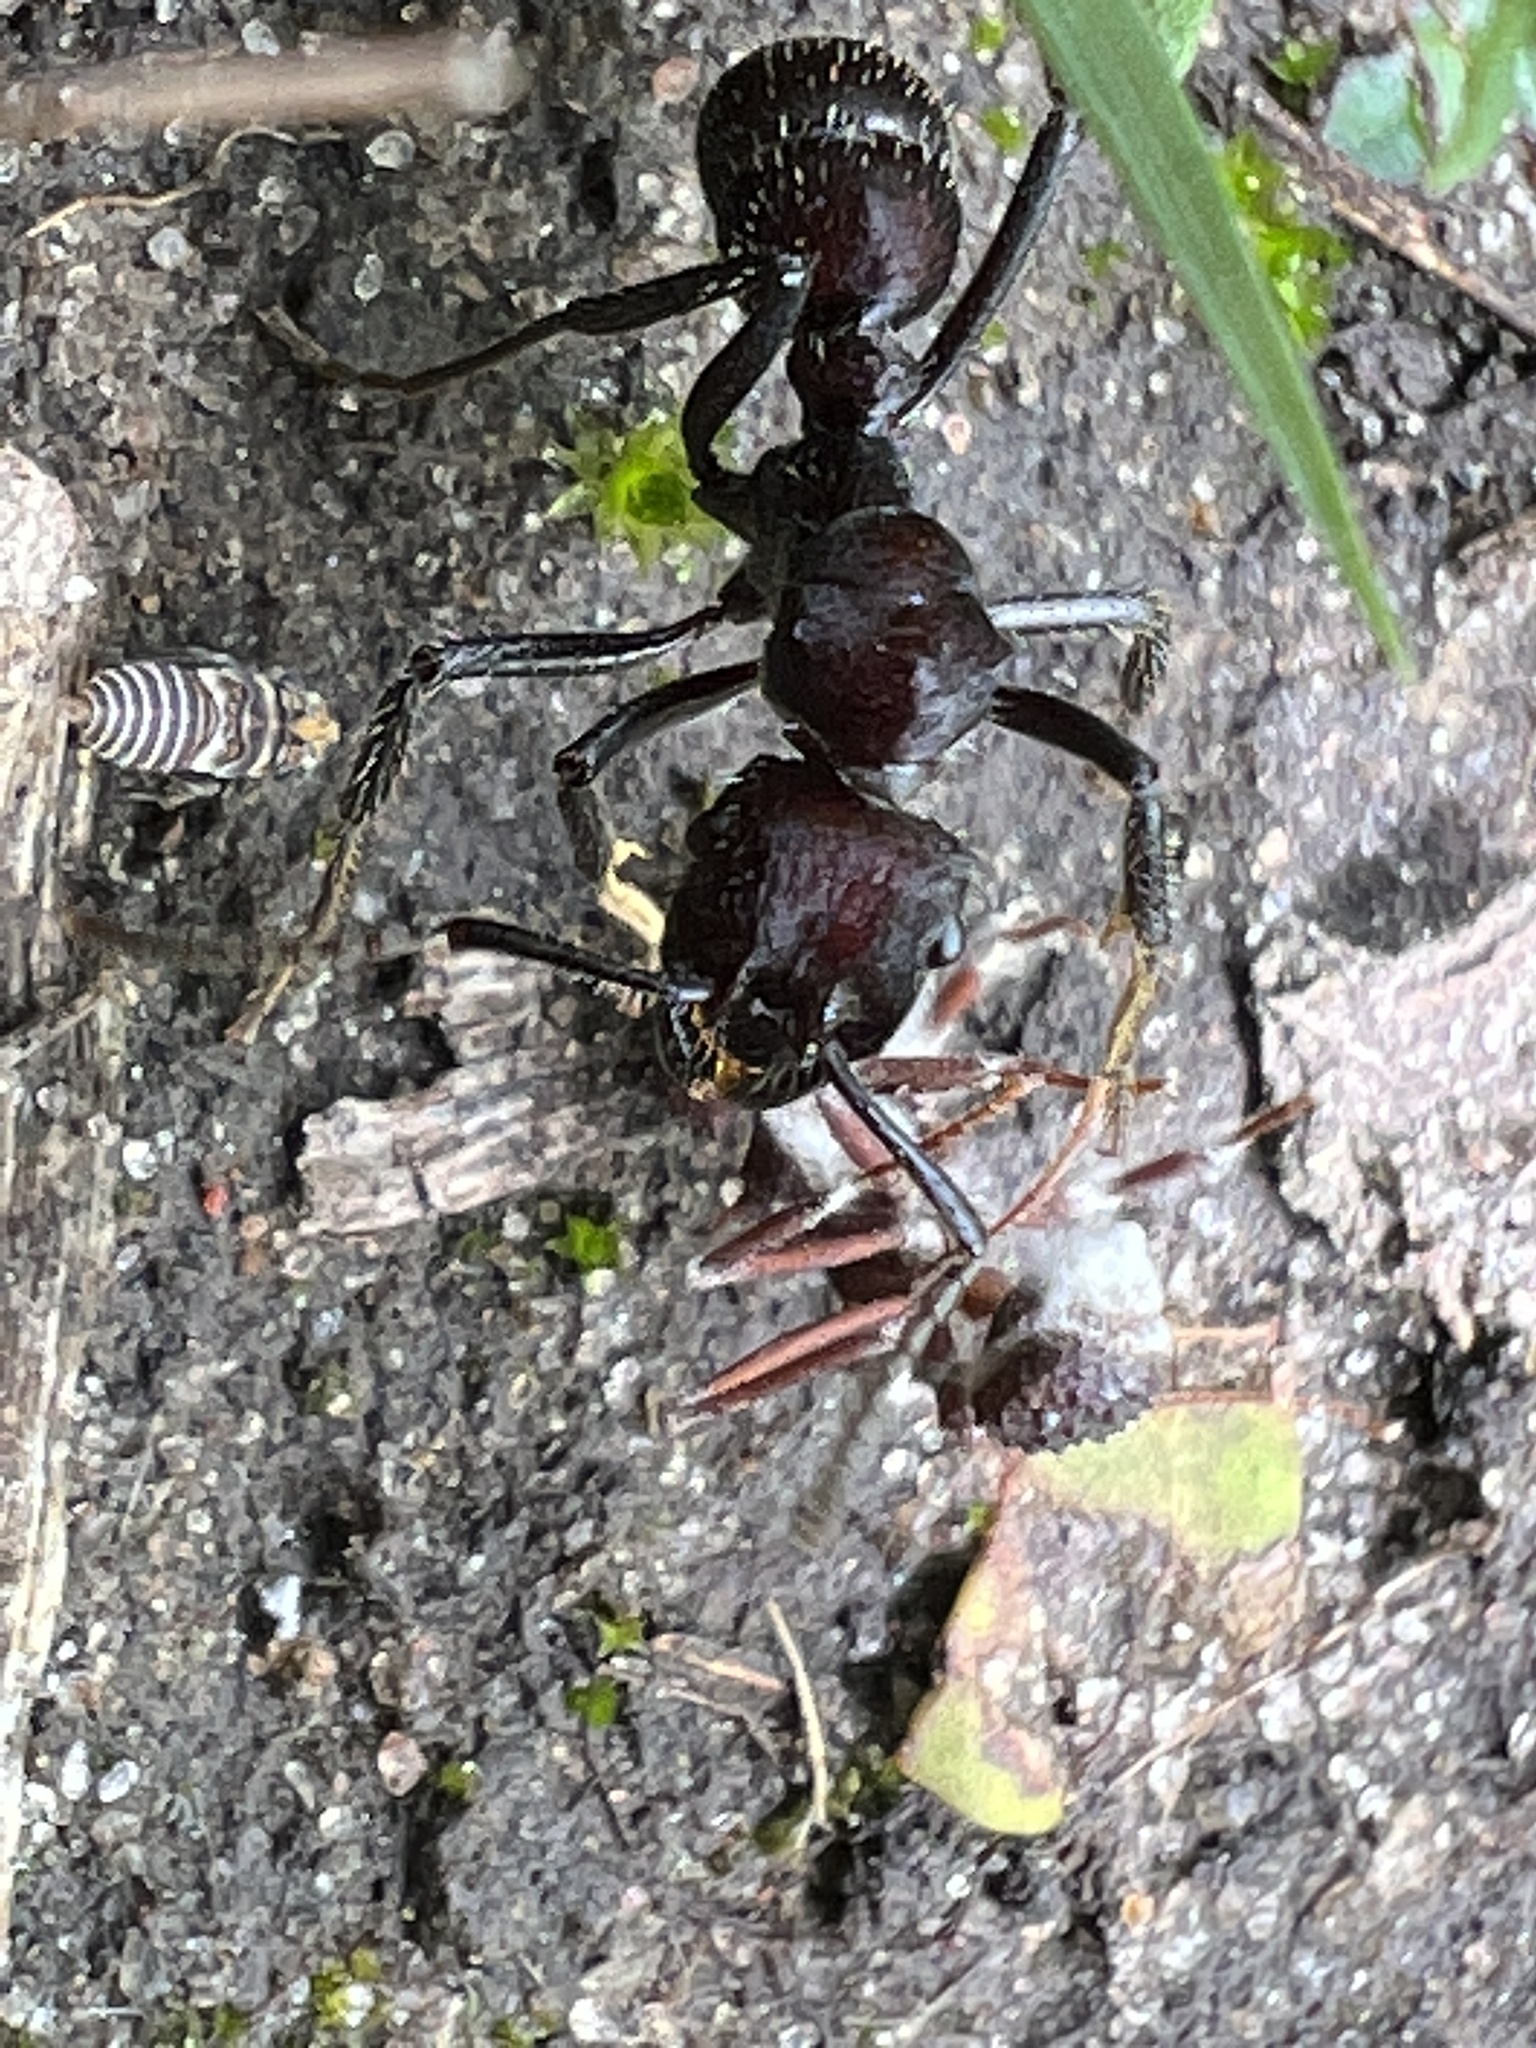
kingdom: Animalia
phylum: Arthropoda
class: Insecta
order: Hymenoptera
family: Formicidae
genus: Ectatomma
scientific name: Ectatomma brunneum
